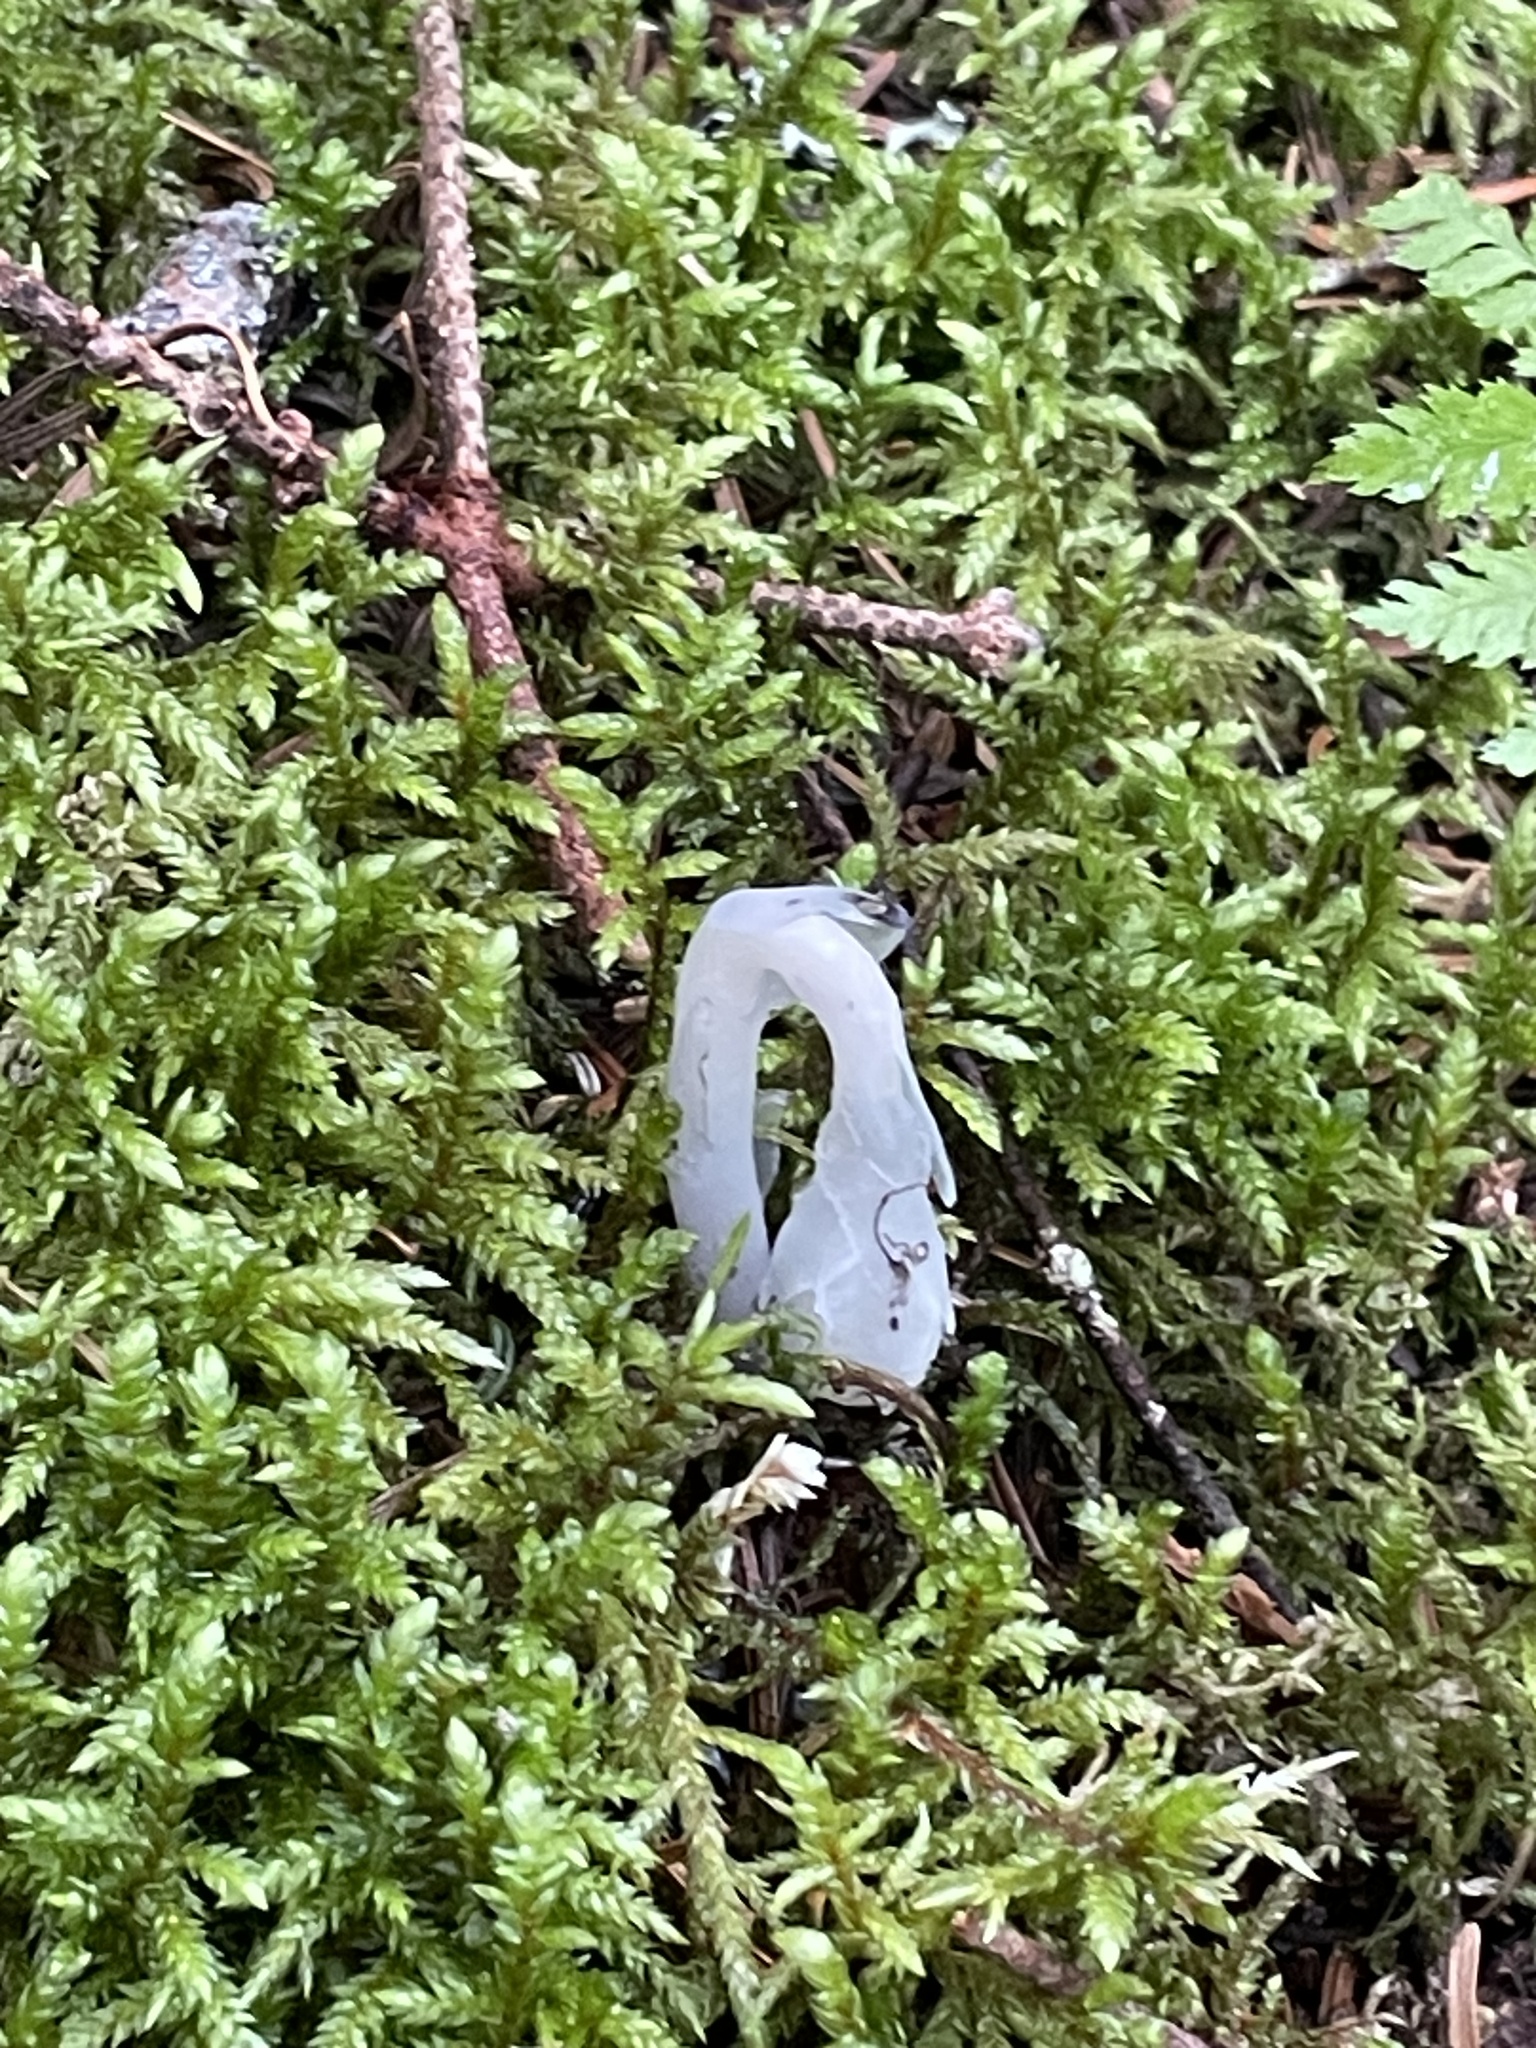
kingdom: Plantae
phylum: Tracheophyta
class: Magnoliopsida
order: Ericales
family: Ericaceae
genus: Monotropa
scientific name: Monotropa uniflora
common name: Convulsion root
